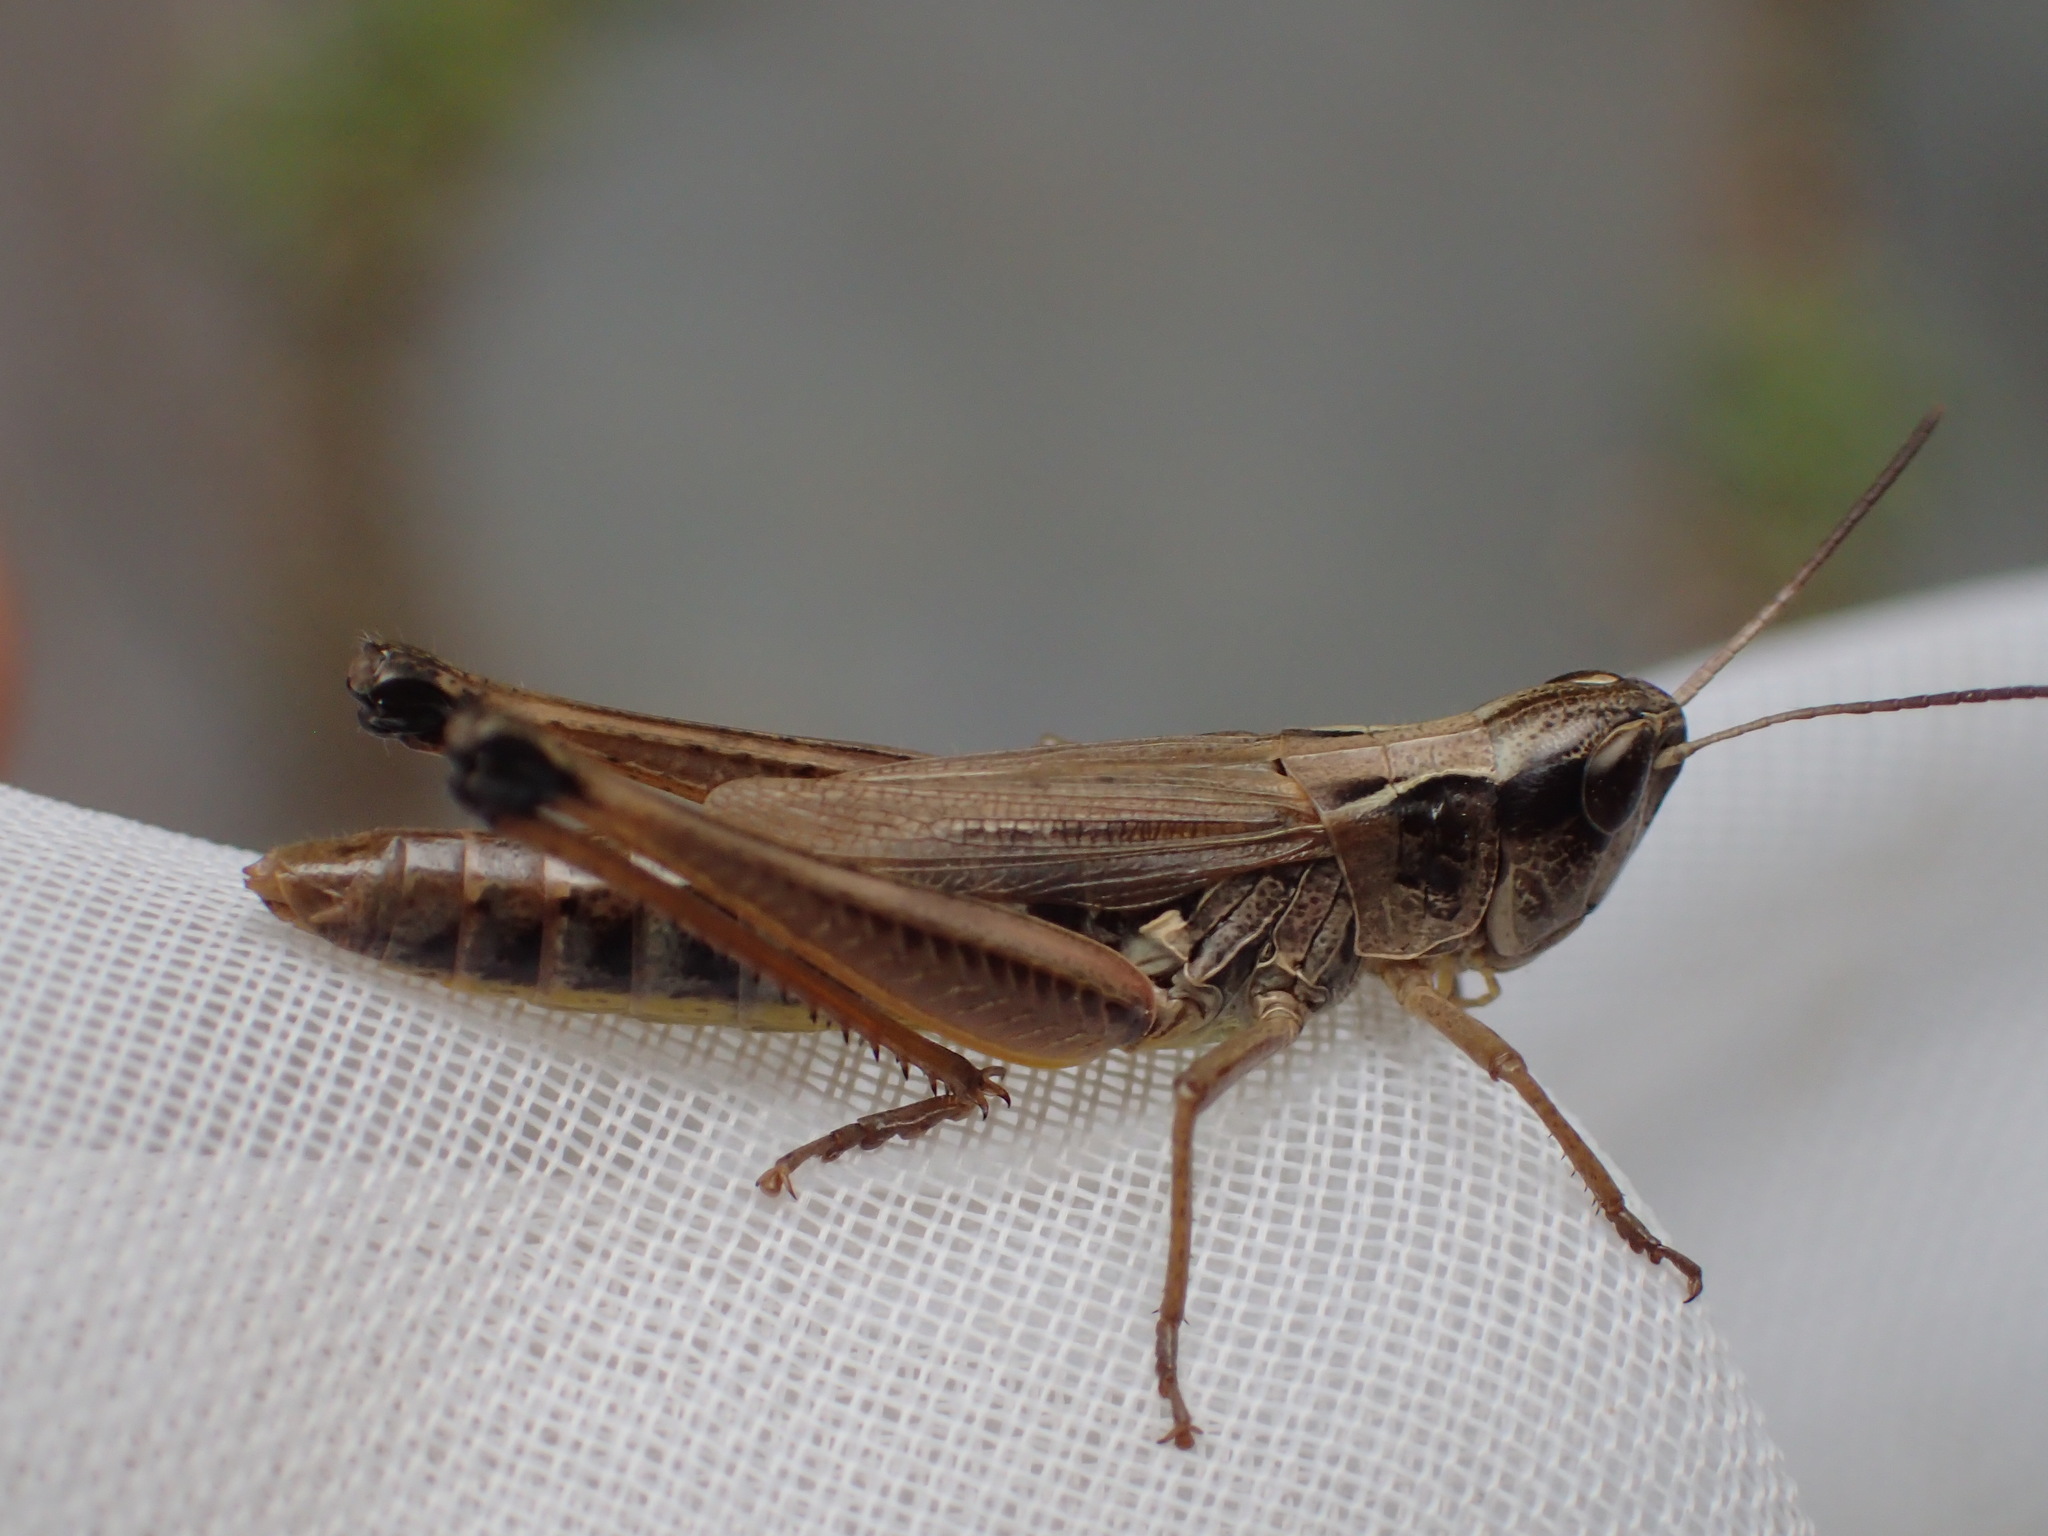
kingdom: Animalia
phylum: Arthropoda
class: Insecta
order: Orthoptera
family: Acrididae
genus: Pseudochorthippus
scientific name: Pseudochorthippus curtipennis
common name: Marsh meadow grasshopper
